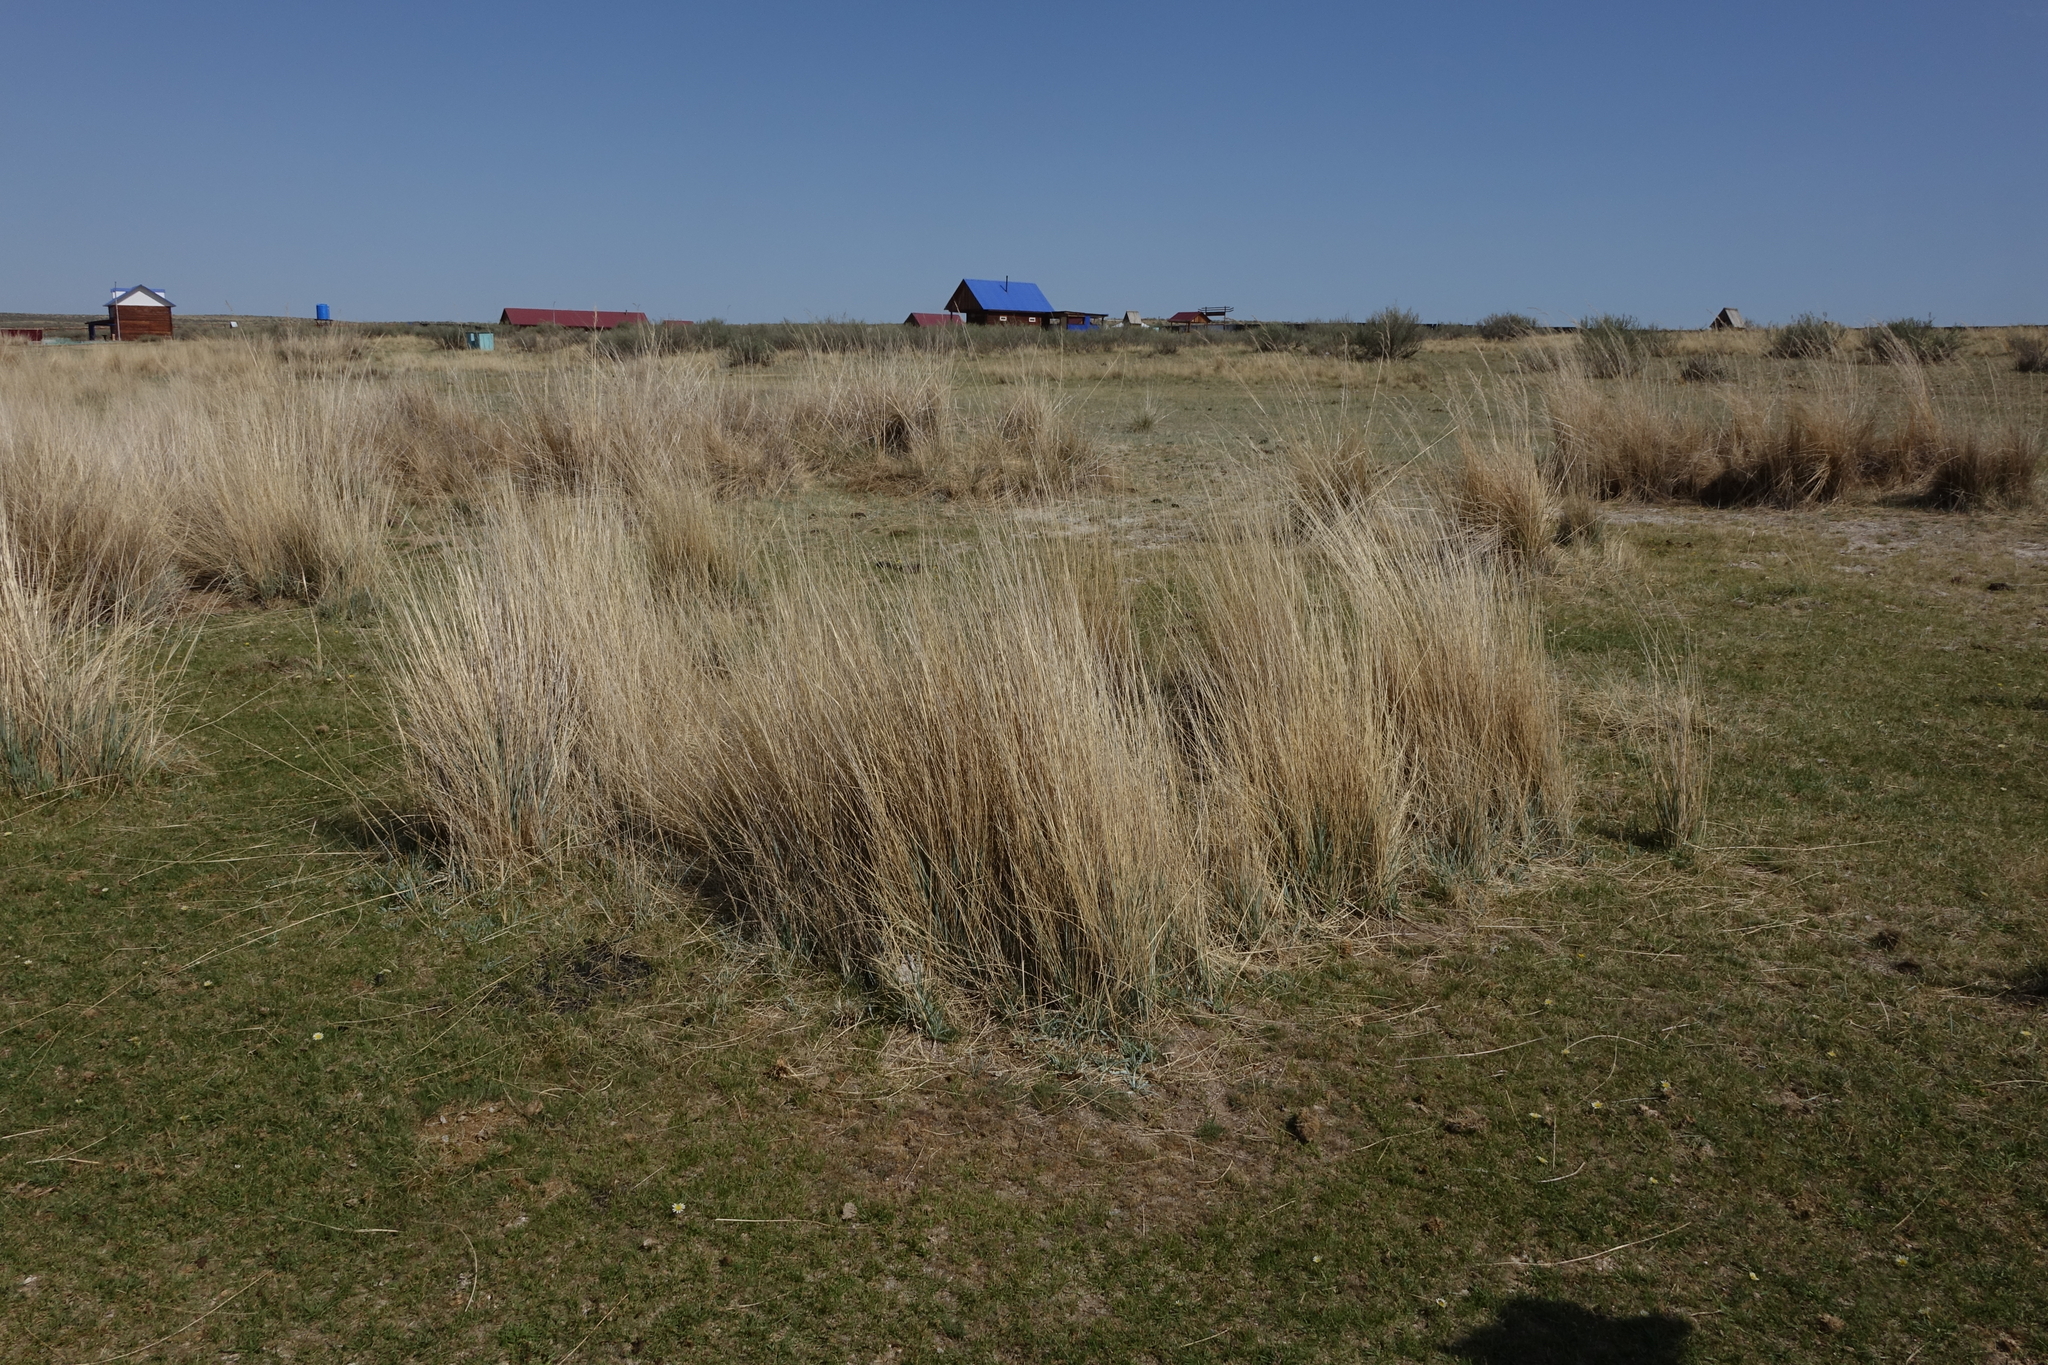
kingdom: Plantae
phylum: Tracheophyta
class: Liliopsida
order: Poales
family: Poaceae
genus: Neotrinia
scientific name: Neotrinia splendens
